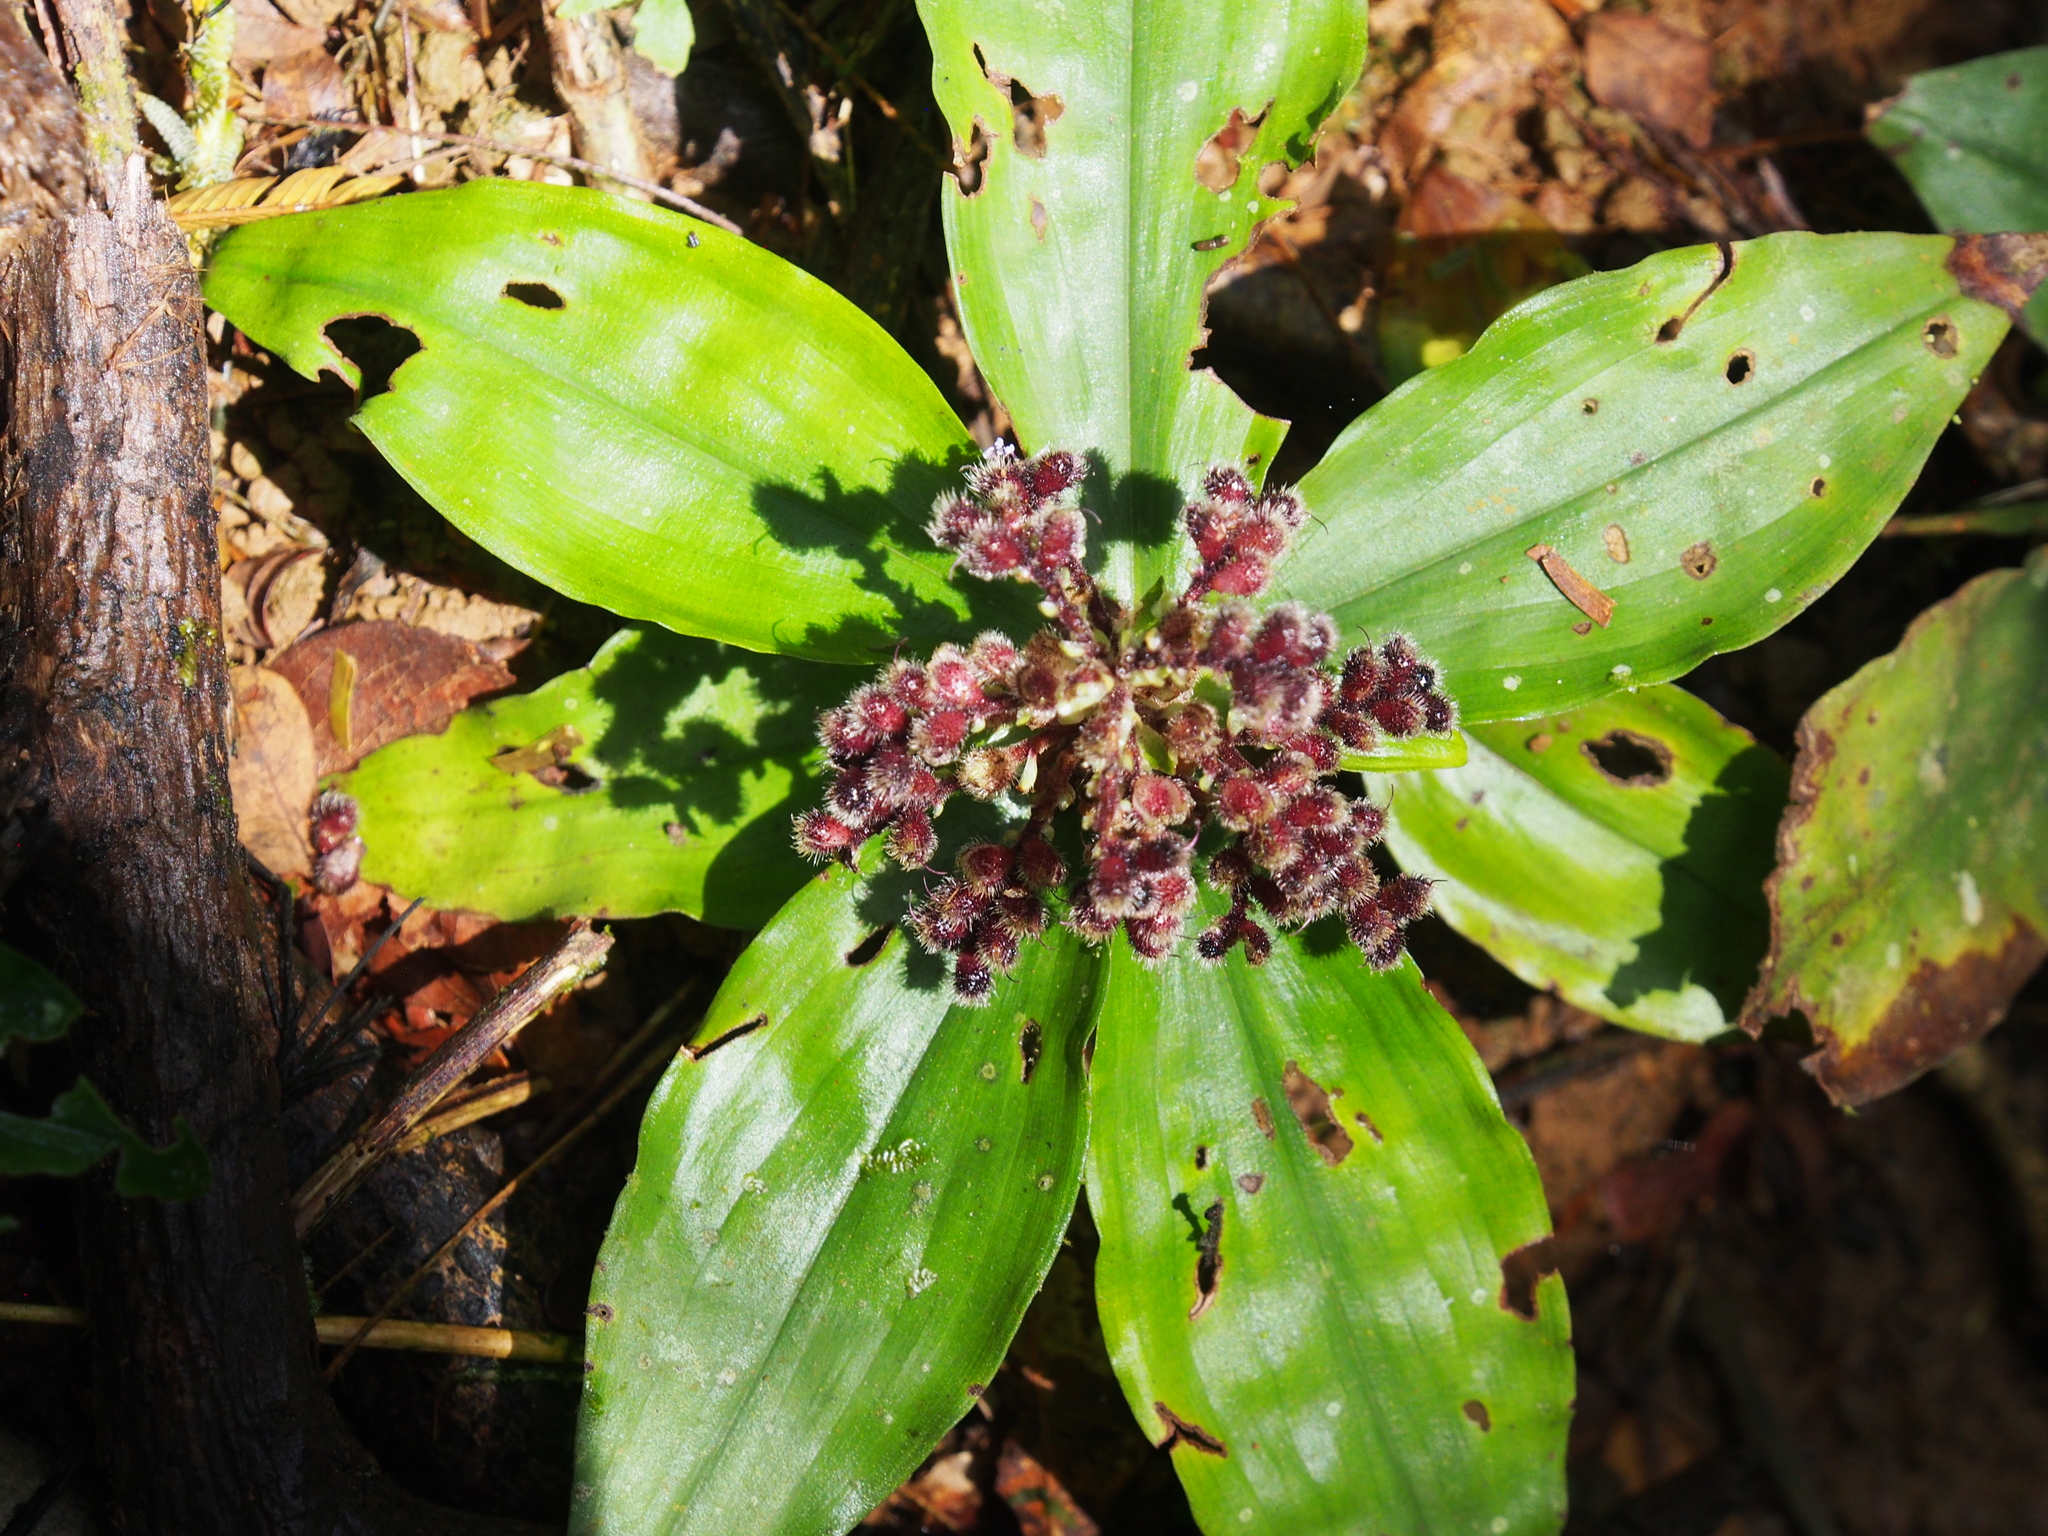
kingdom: Plantae
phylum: Tracheophyta
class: Liliopsida
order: Commelinales
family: Commelinaceae
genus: Floscopa
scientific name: Floscopa robusta
